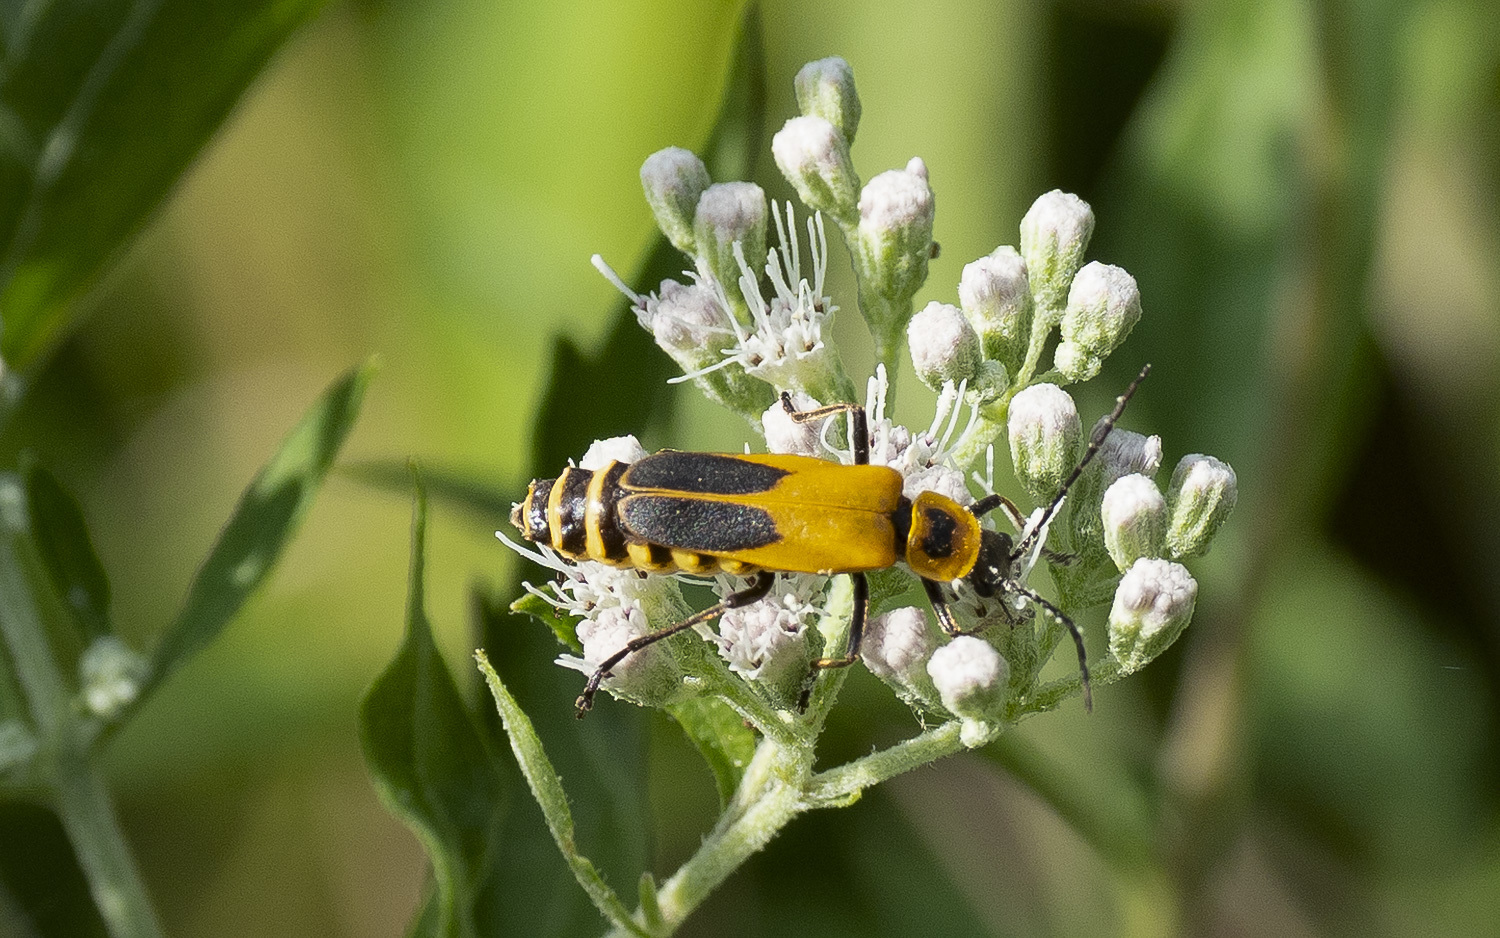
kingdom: Animalia
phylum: Arthropoda
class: Insecta
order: Coleoptera
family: Cantharidae
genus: Chauliognathus
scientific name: Chauliognathus pensylvanicus
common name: Goldenrod soldier beetle
